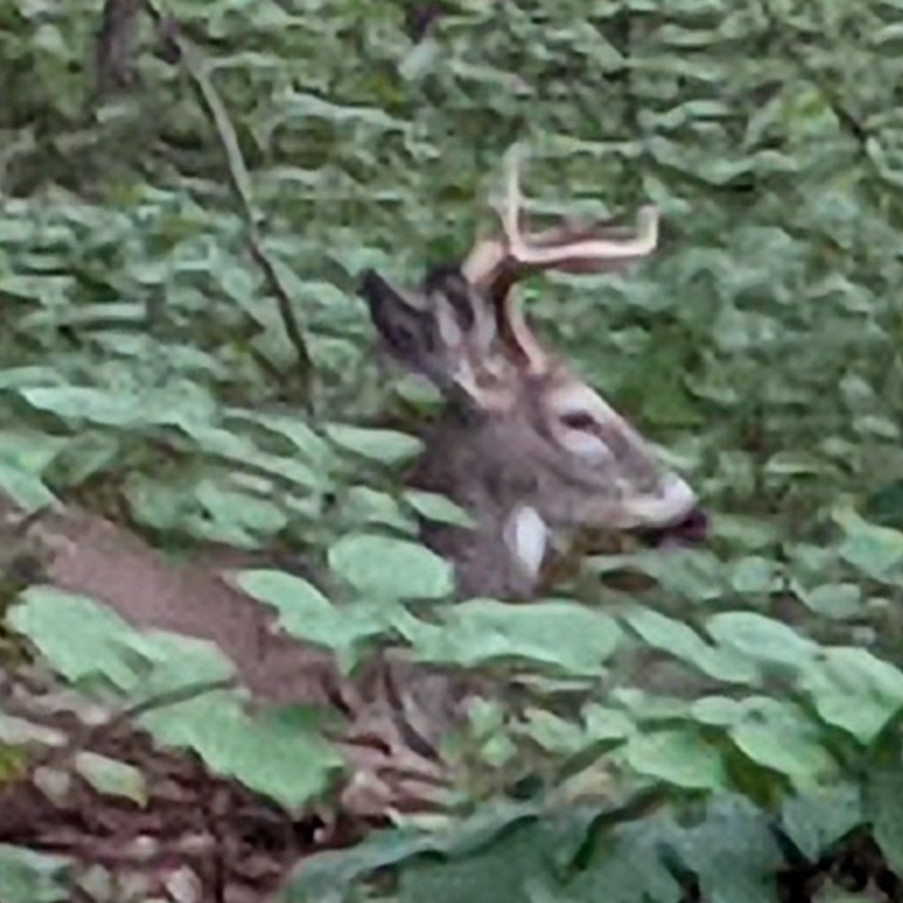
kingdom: Animalia
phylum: Chordata
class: Mammalia
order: Artiodactyla
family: Cervidae
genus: Odocoileus
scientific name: Odocoileus virginianus
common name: White-tailed deer
